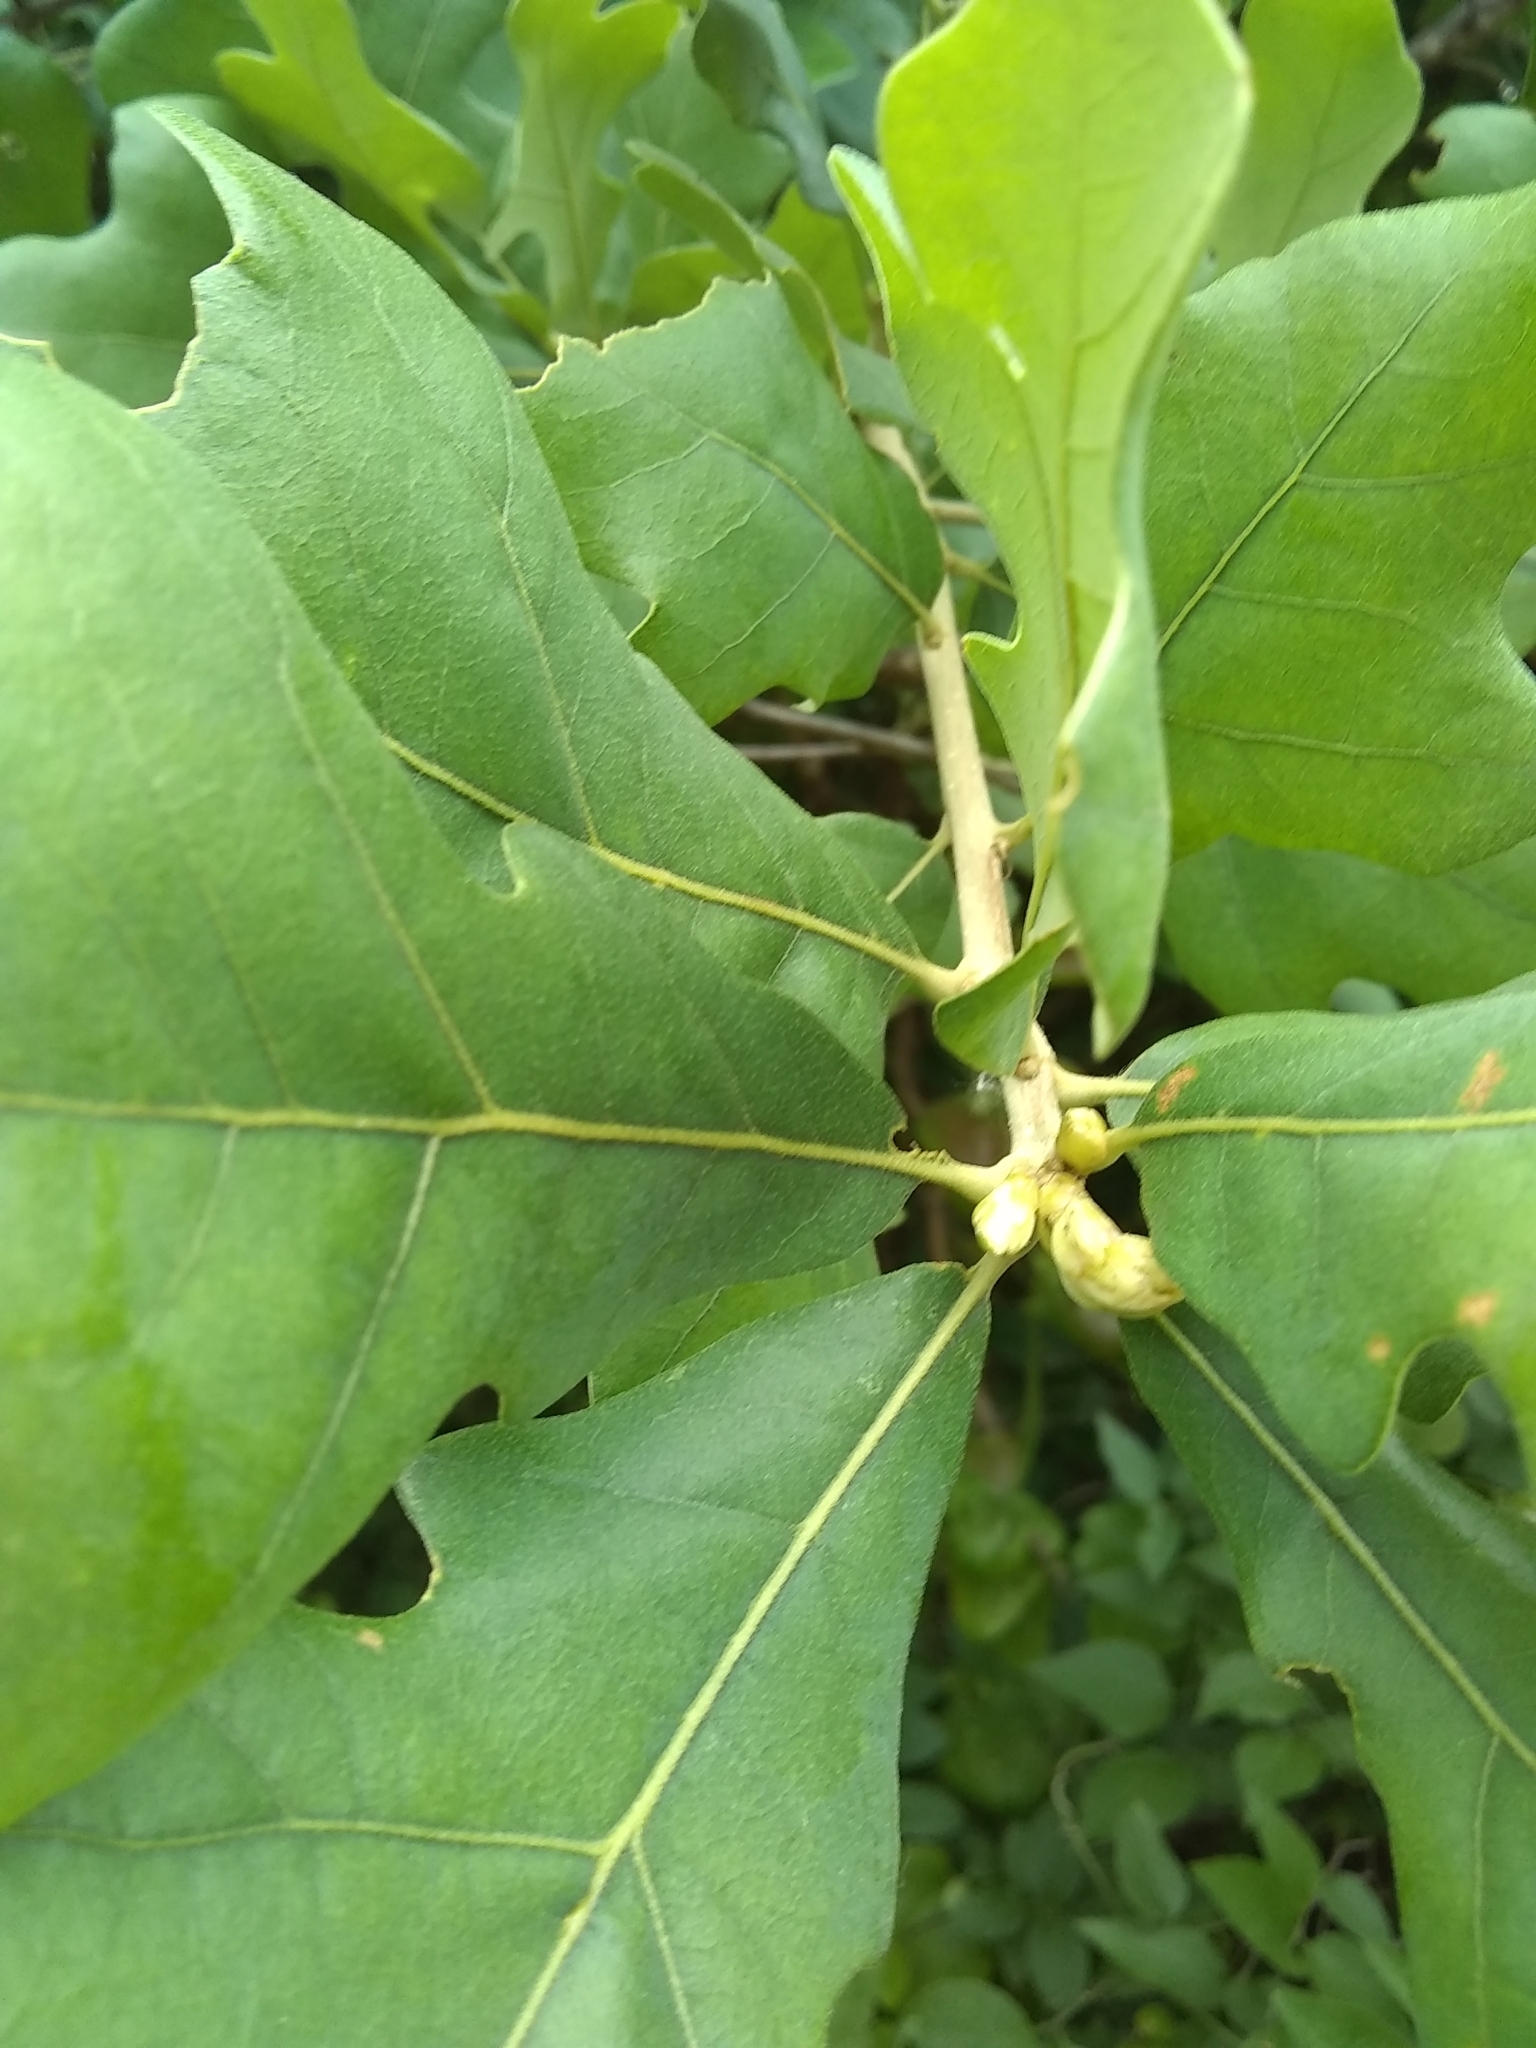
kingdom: Plantae
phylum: Tracheophyta
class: Magnoliopsida
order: Fagales
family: Fagaceae
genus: Quercus
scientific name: Quercus stellata
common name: Post oak
